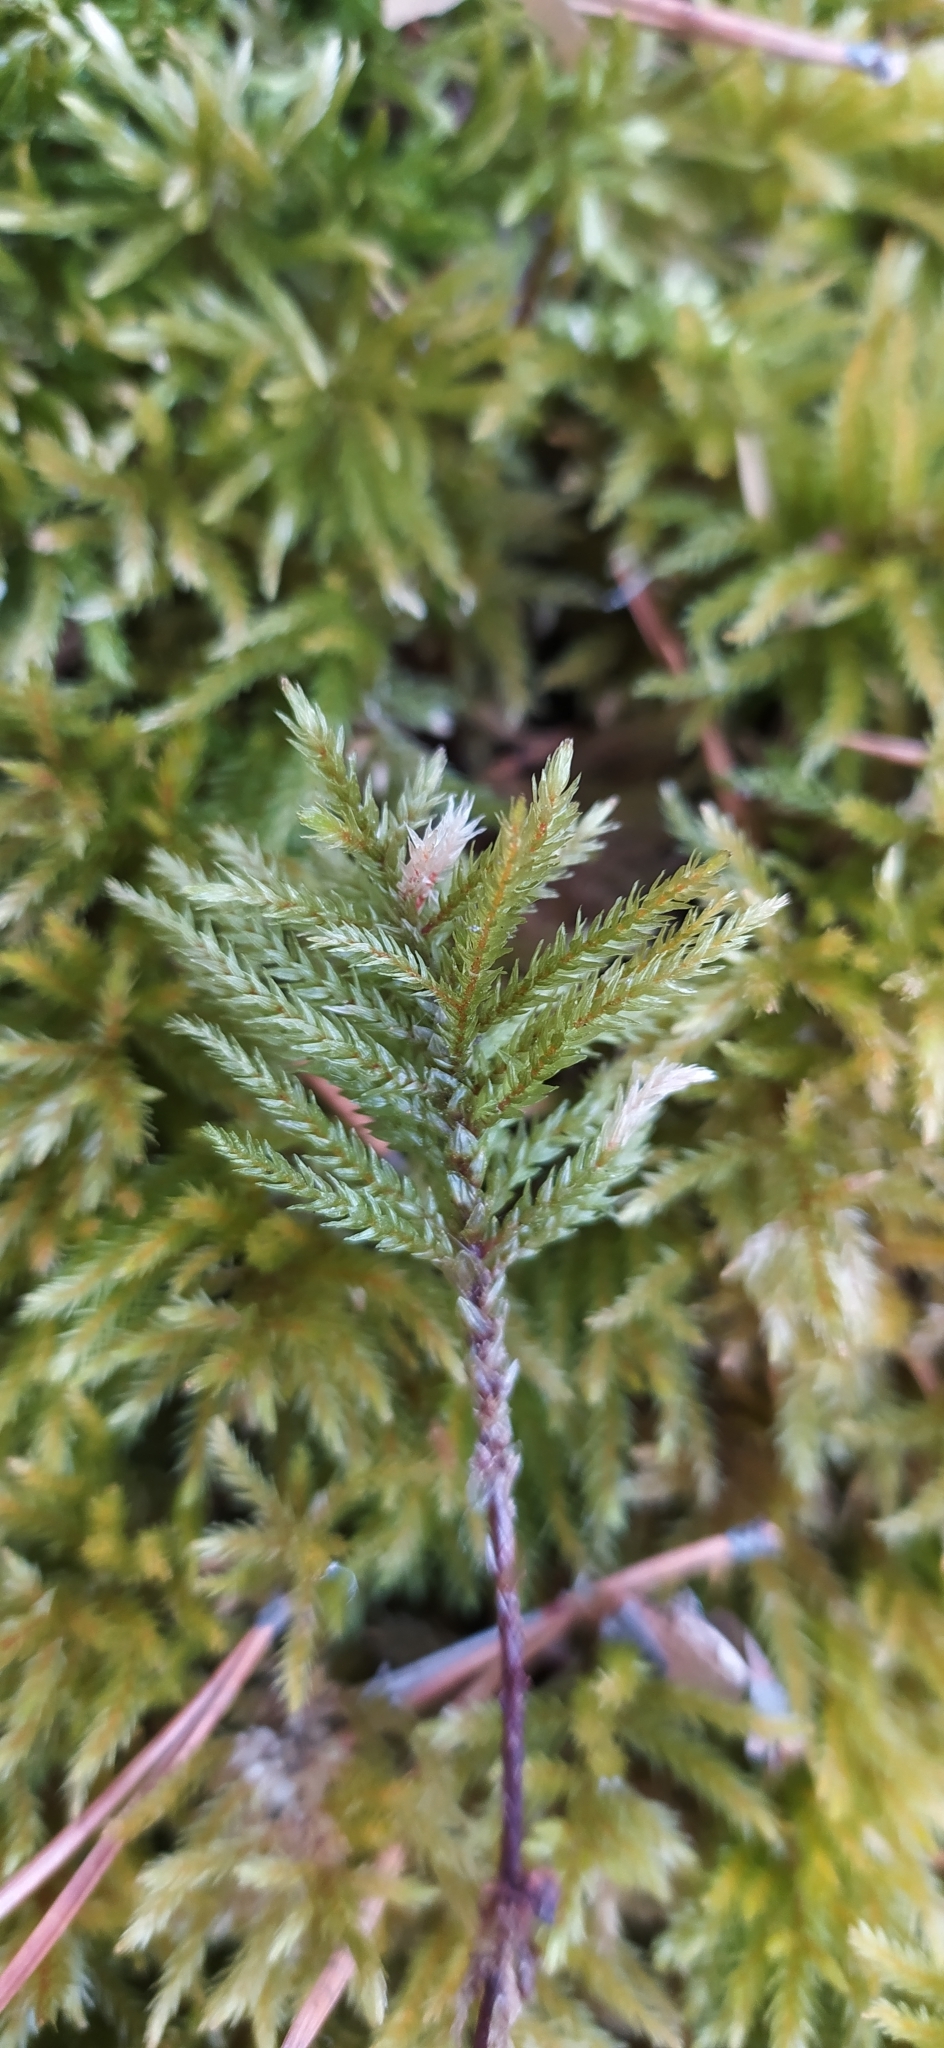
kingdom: Plantae
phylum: Bryophyta
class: Bryopsida
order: Hypnales
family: Climaciaceae
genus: Climacium
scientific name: Climacium dendroides
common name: Northern tree moss
